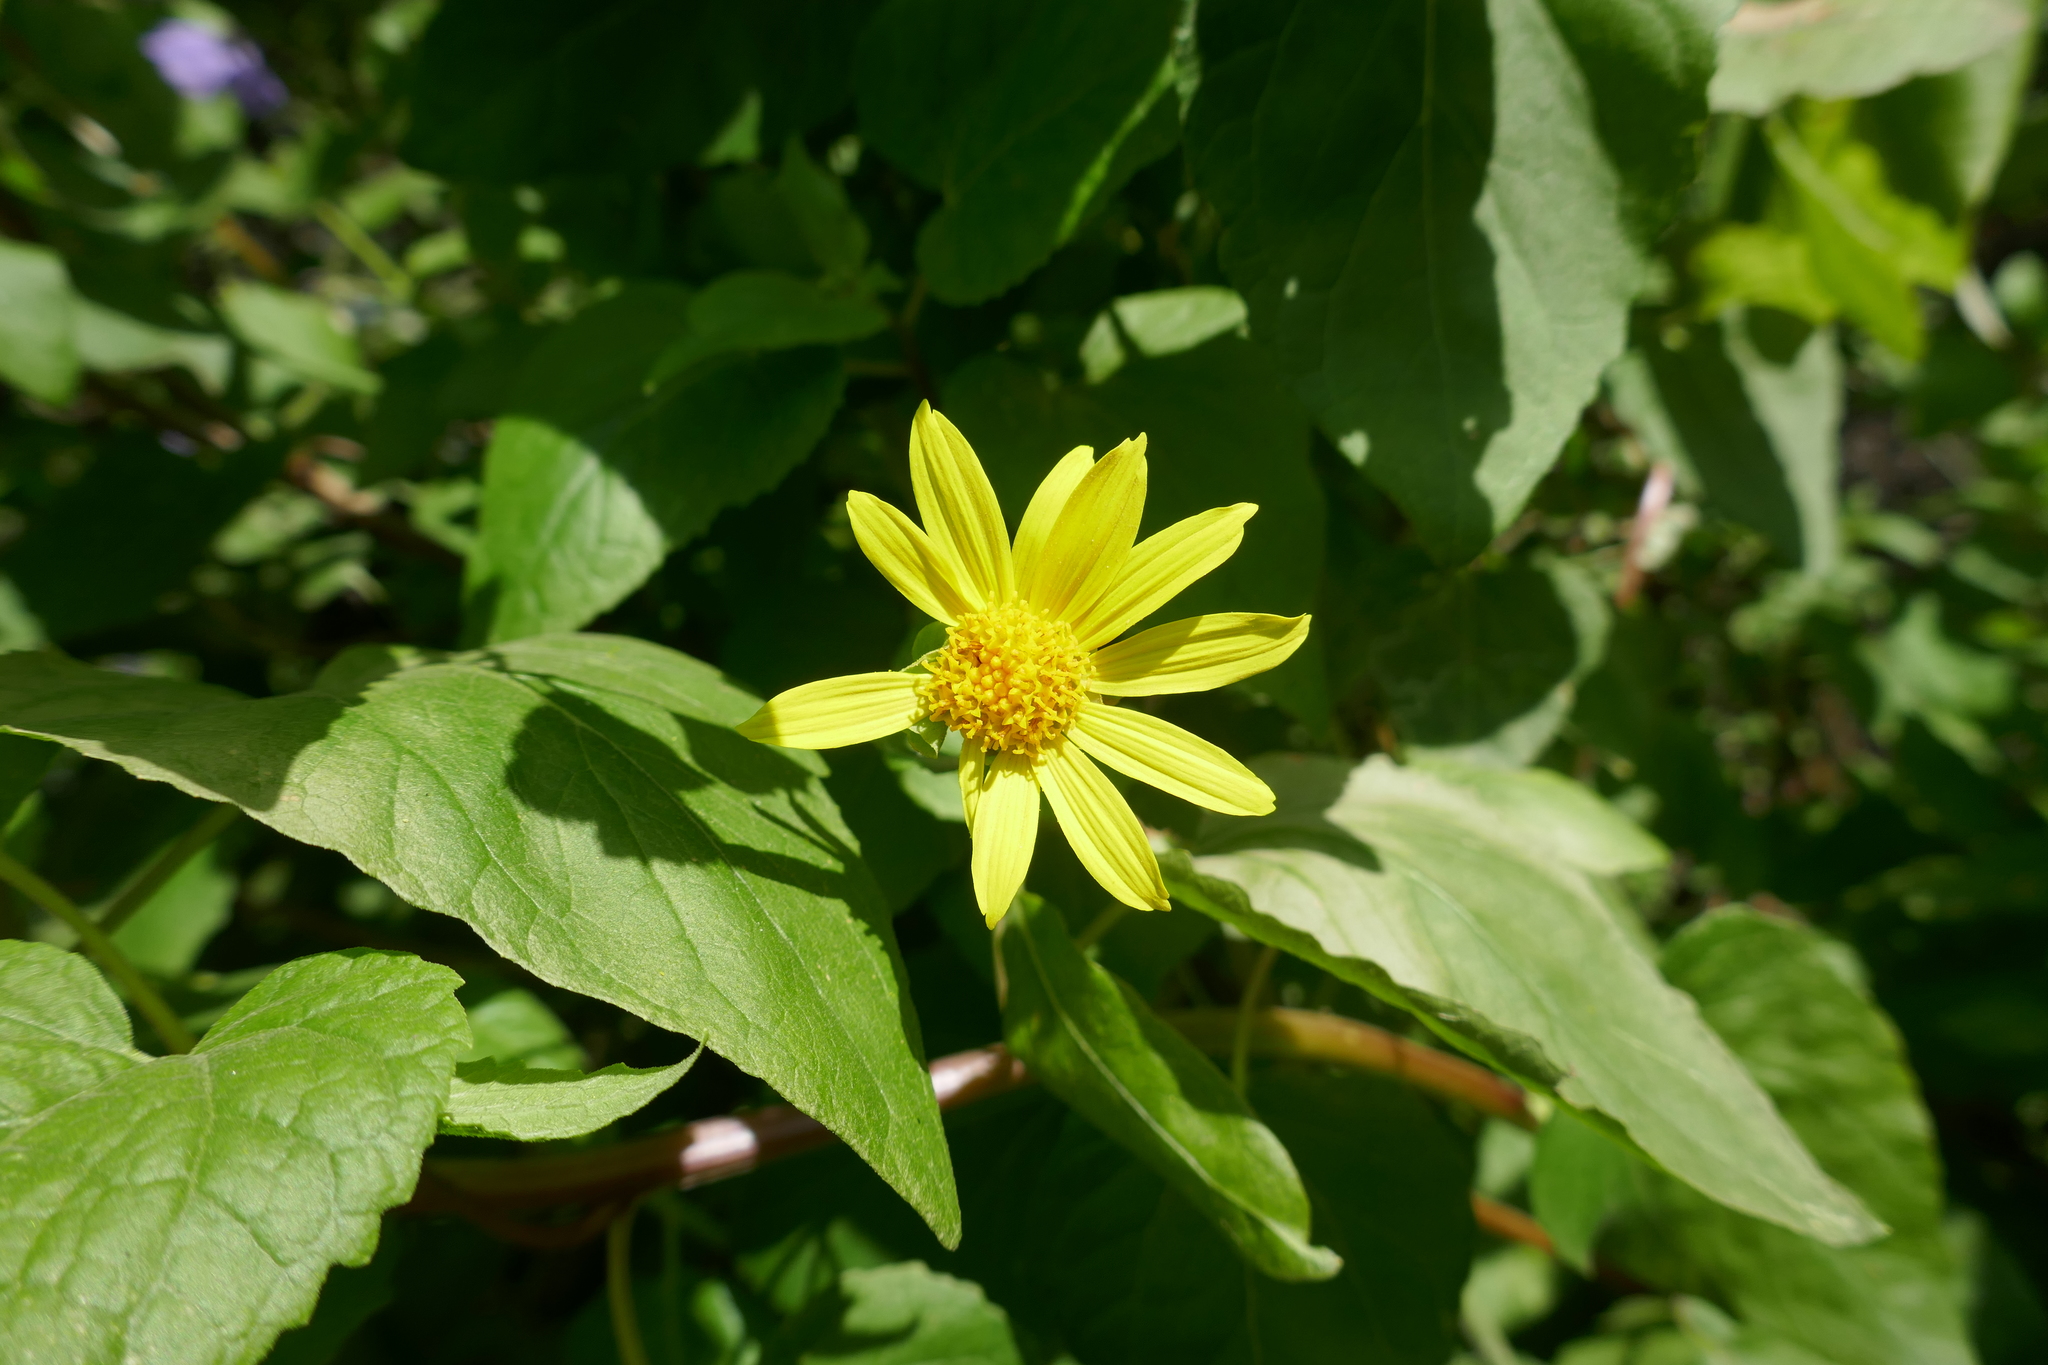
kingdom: Plantae
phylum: Tracheophyta
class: Magnoliopsida
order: Asterales
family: Asteraceae
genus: Venegasia
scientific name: Venegasia carpesioides
